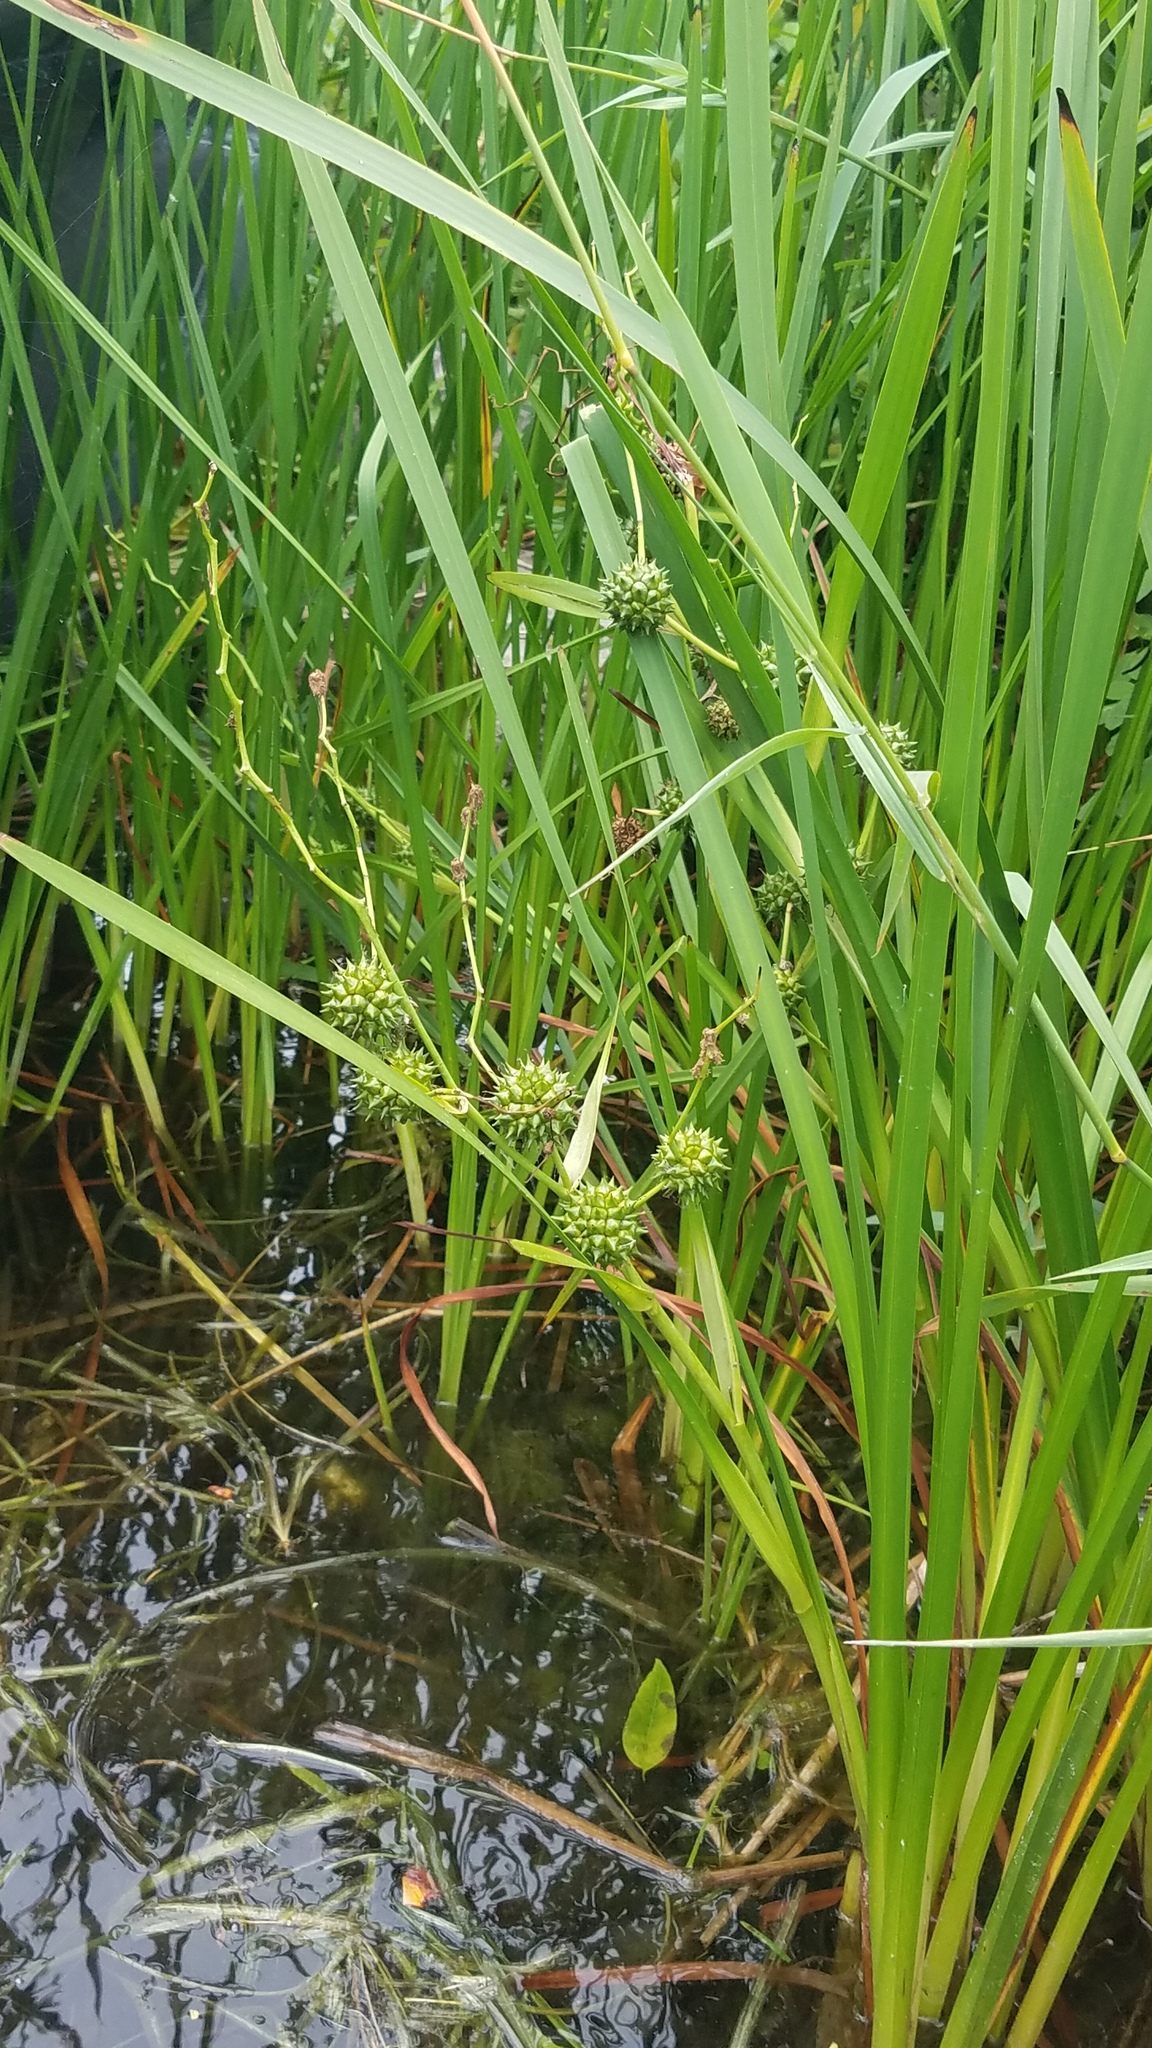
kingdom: Plantae
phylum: Tracheophyta
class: Liliopsida
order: Poales
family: Typhaceae
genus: Sparganium
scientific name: Sparganium eurycarpum
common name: Broad-fruited burreed
